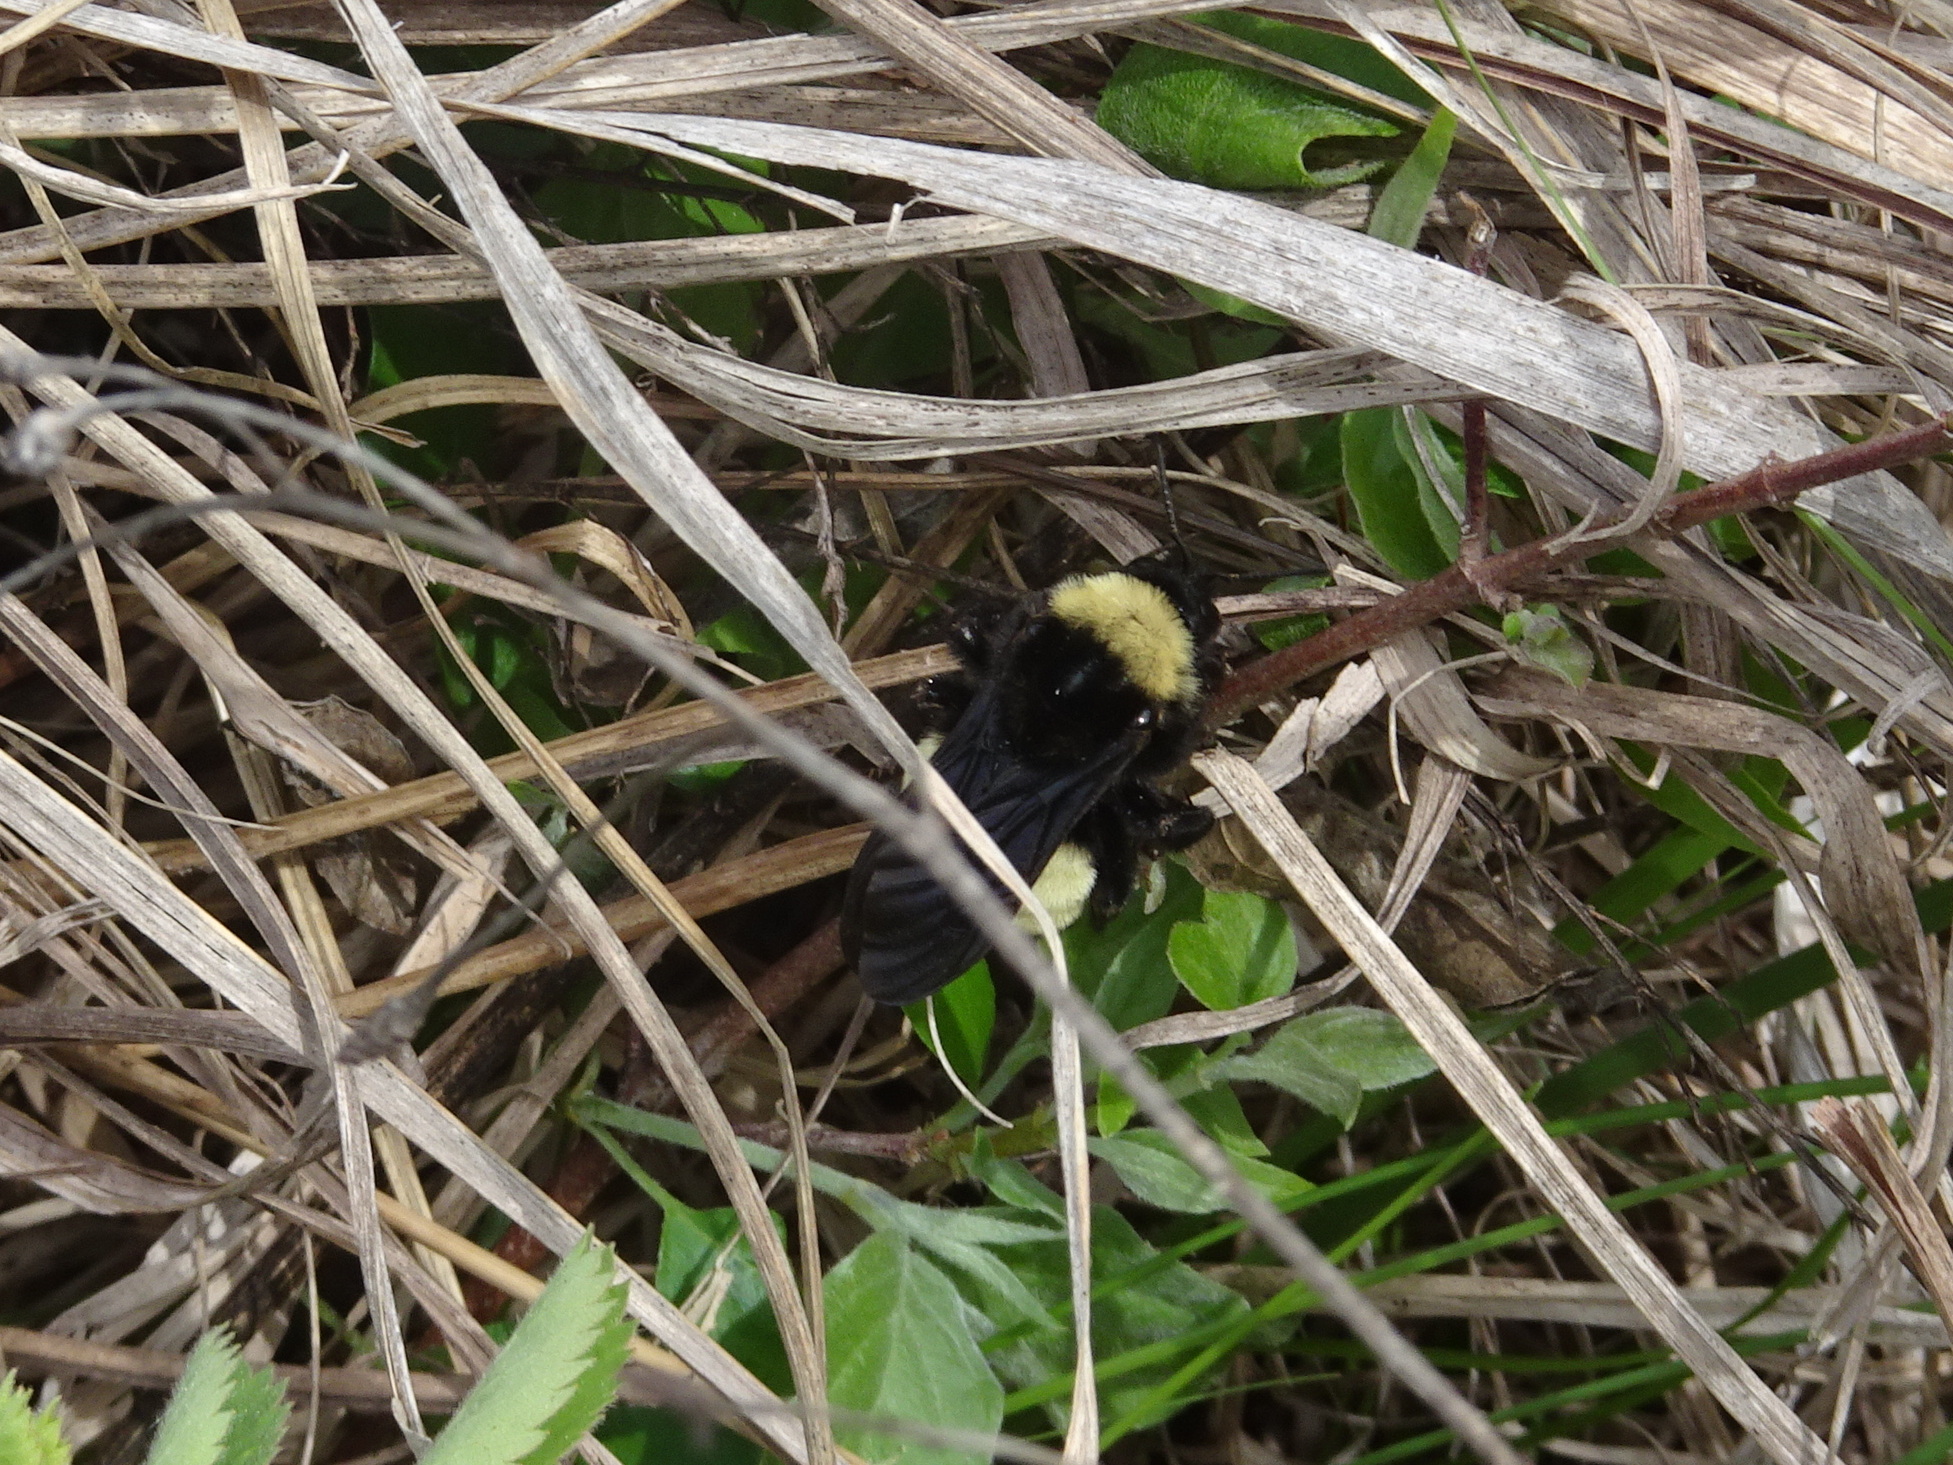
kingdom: Animalia
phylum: Arthropoda
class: Insecta
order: Hymenoptera
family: Apidae
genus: Bombus
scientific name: Bombus pensylvanicus
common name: Bumble bee
